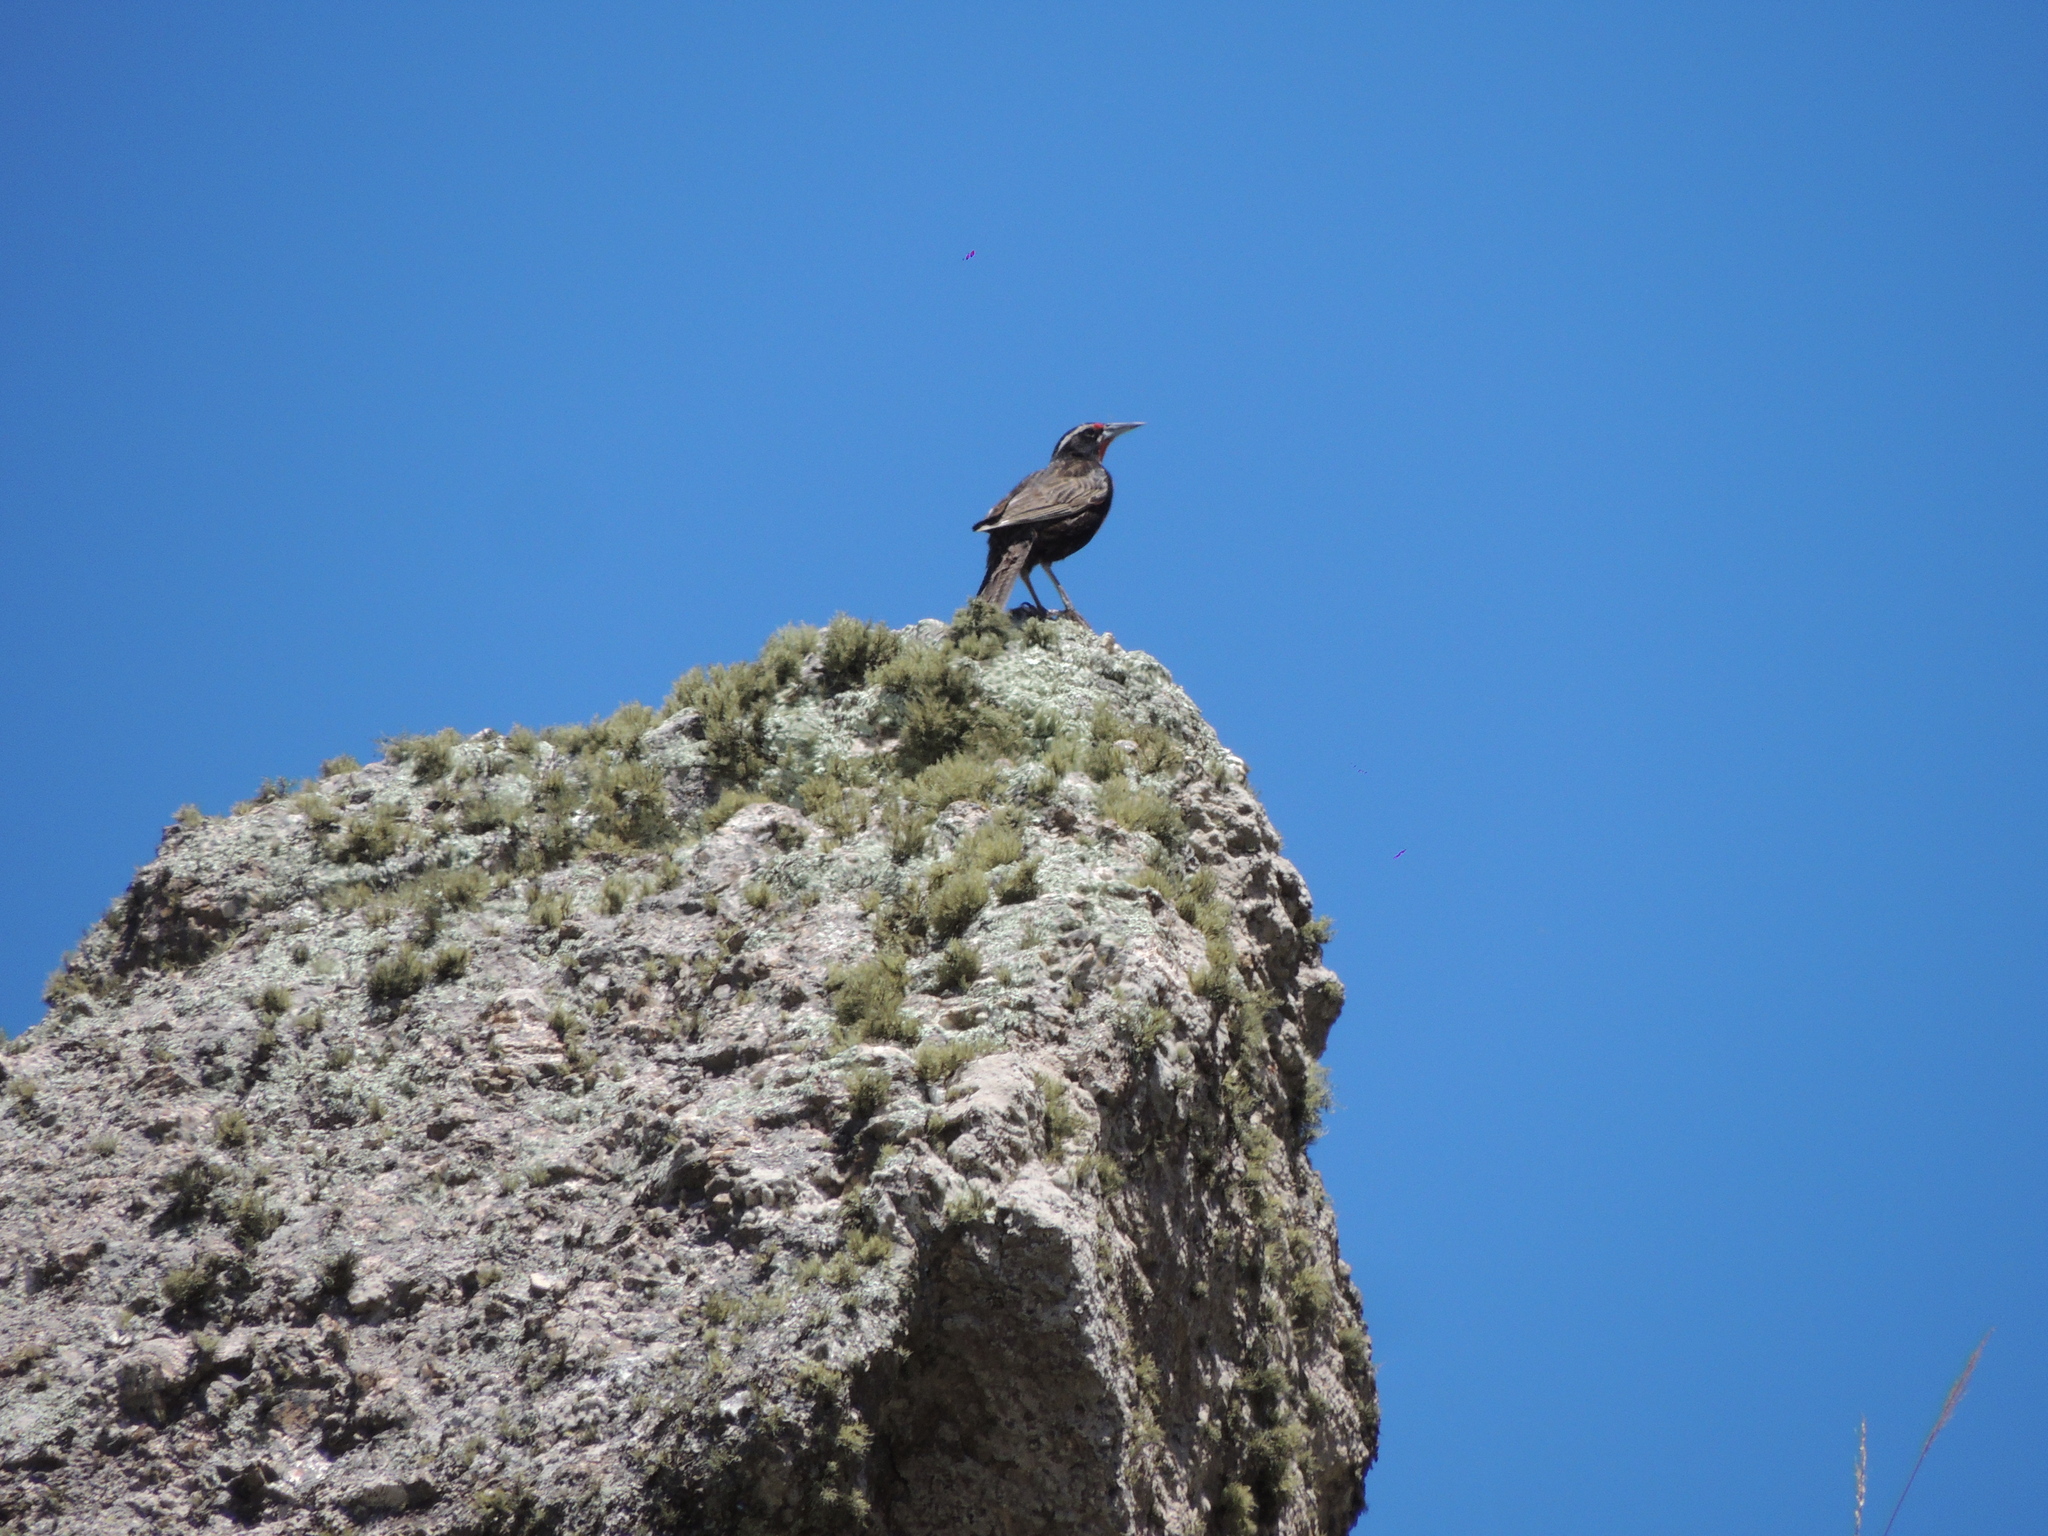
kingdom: Animalia
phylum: Chordata
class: Aves
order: Passeriformes
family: Icteridae
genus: Sturnella
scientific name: Sturnella loyca
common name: Long-tailed meadowlark
